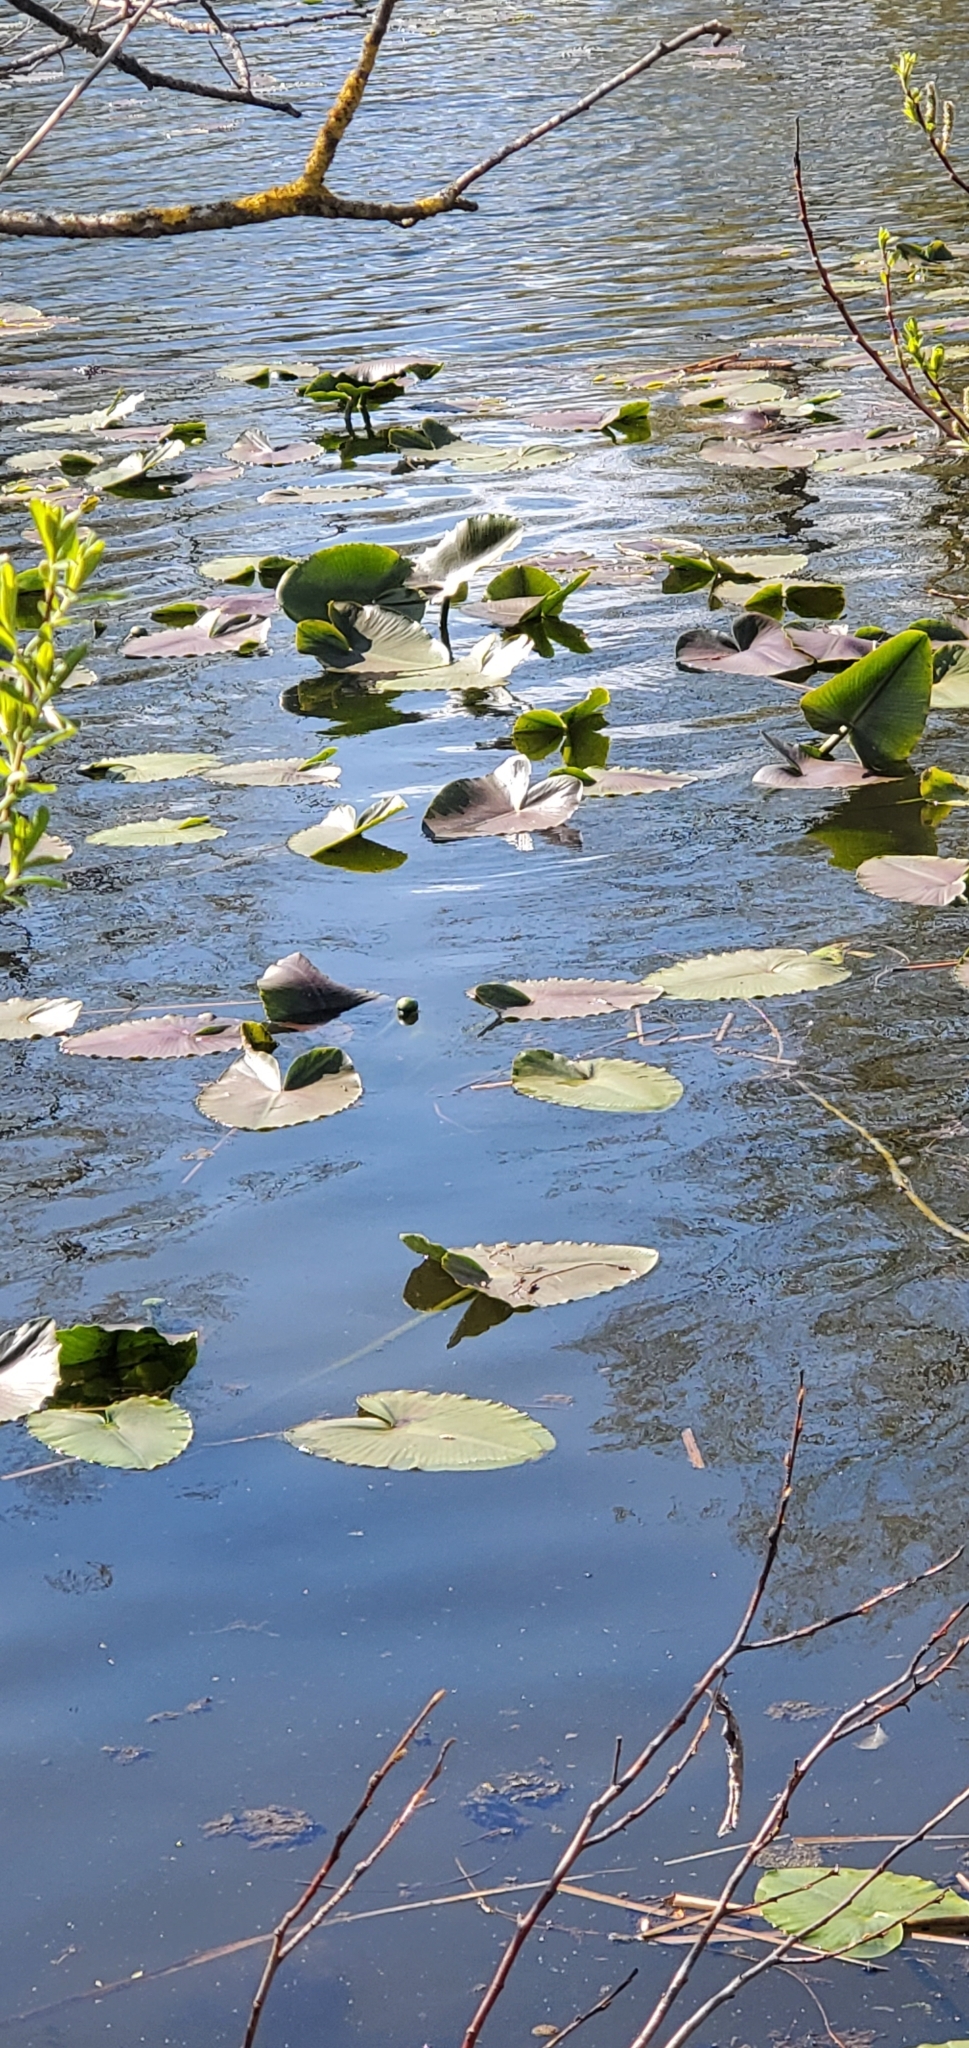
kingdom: Plantae
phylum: Tracheophyta
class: Magnoliopsida
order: Nymphaeales
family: Nymphaeaceae
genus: Nuphar
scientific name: Nuphar polysepala
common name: Rocky mountain cow-lily
